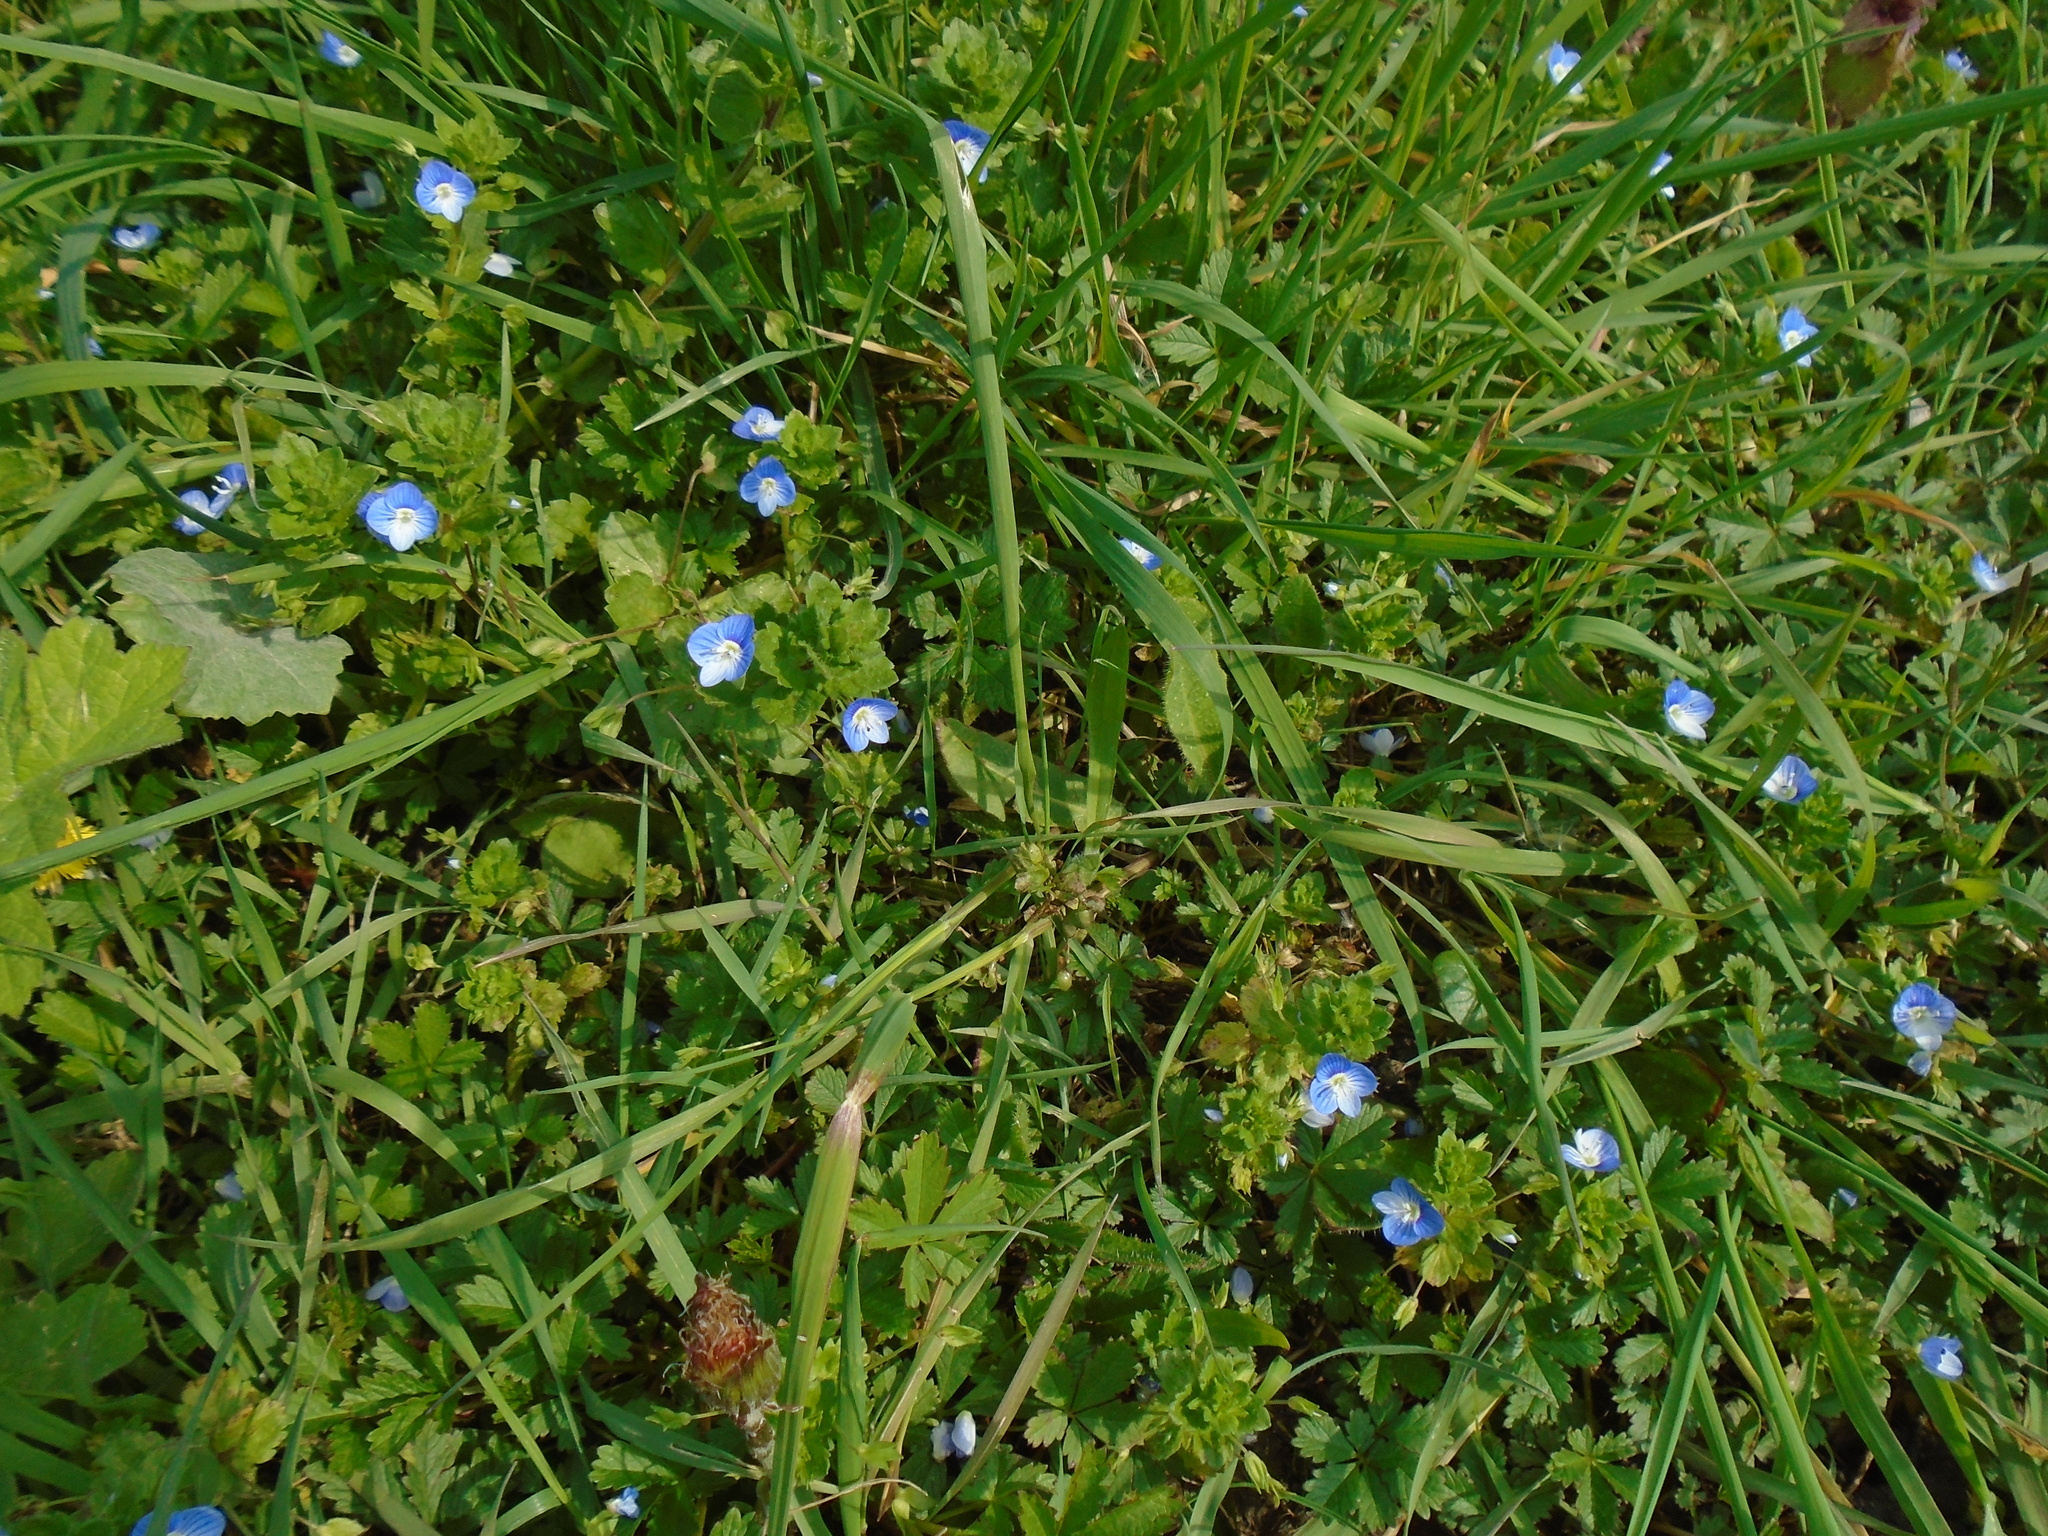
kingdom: Plantae
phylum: Tracheophyta
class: Magnoliopsida
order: Lamiales
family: Plantaginaceae
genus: Veronica
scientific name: Veronica persica
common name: Common field-speedwell
